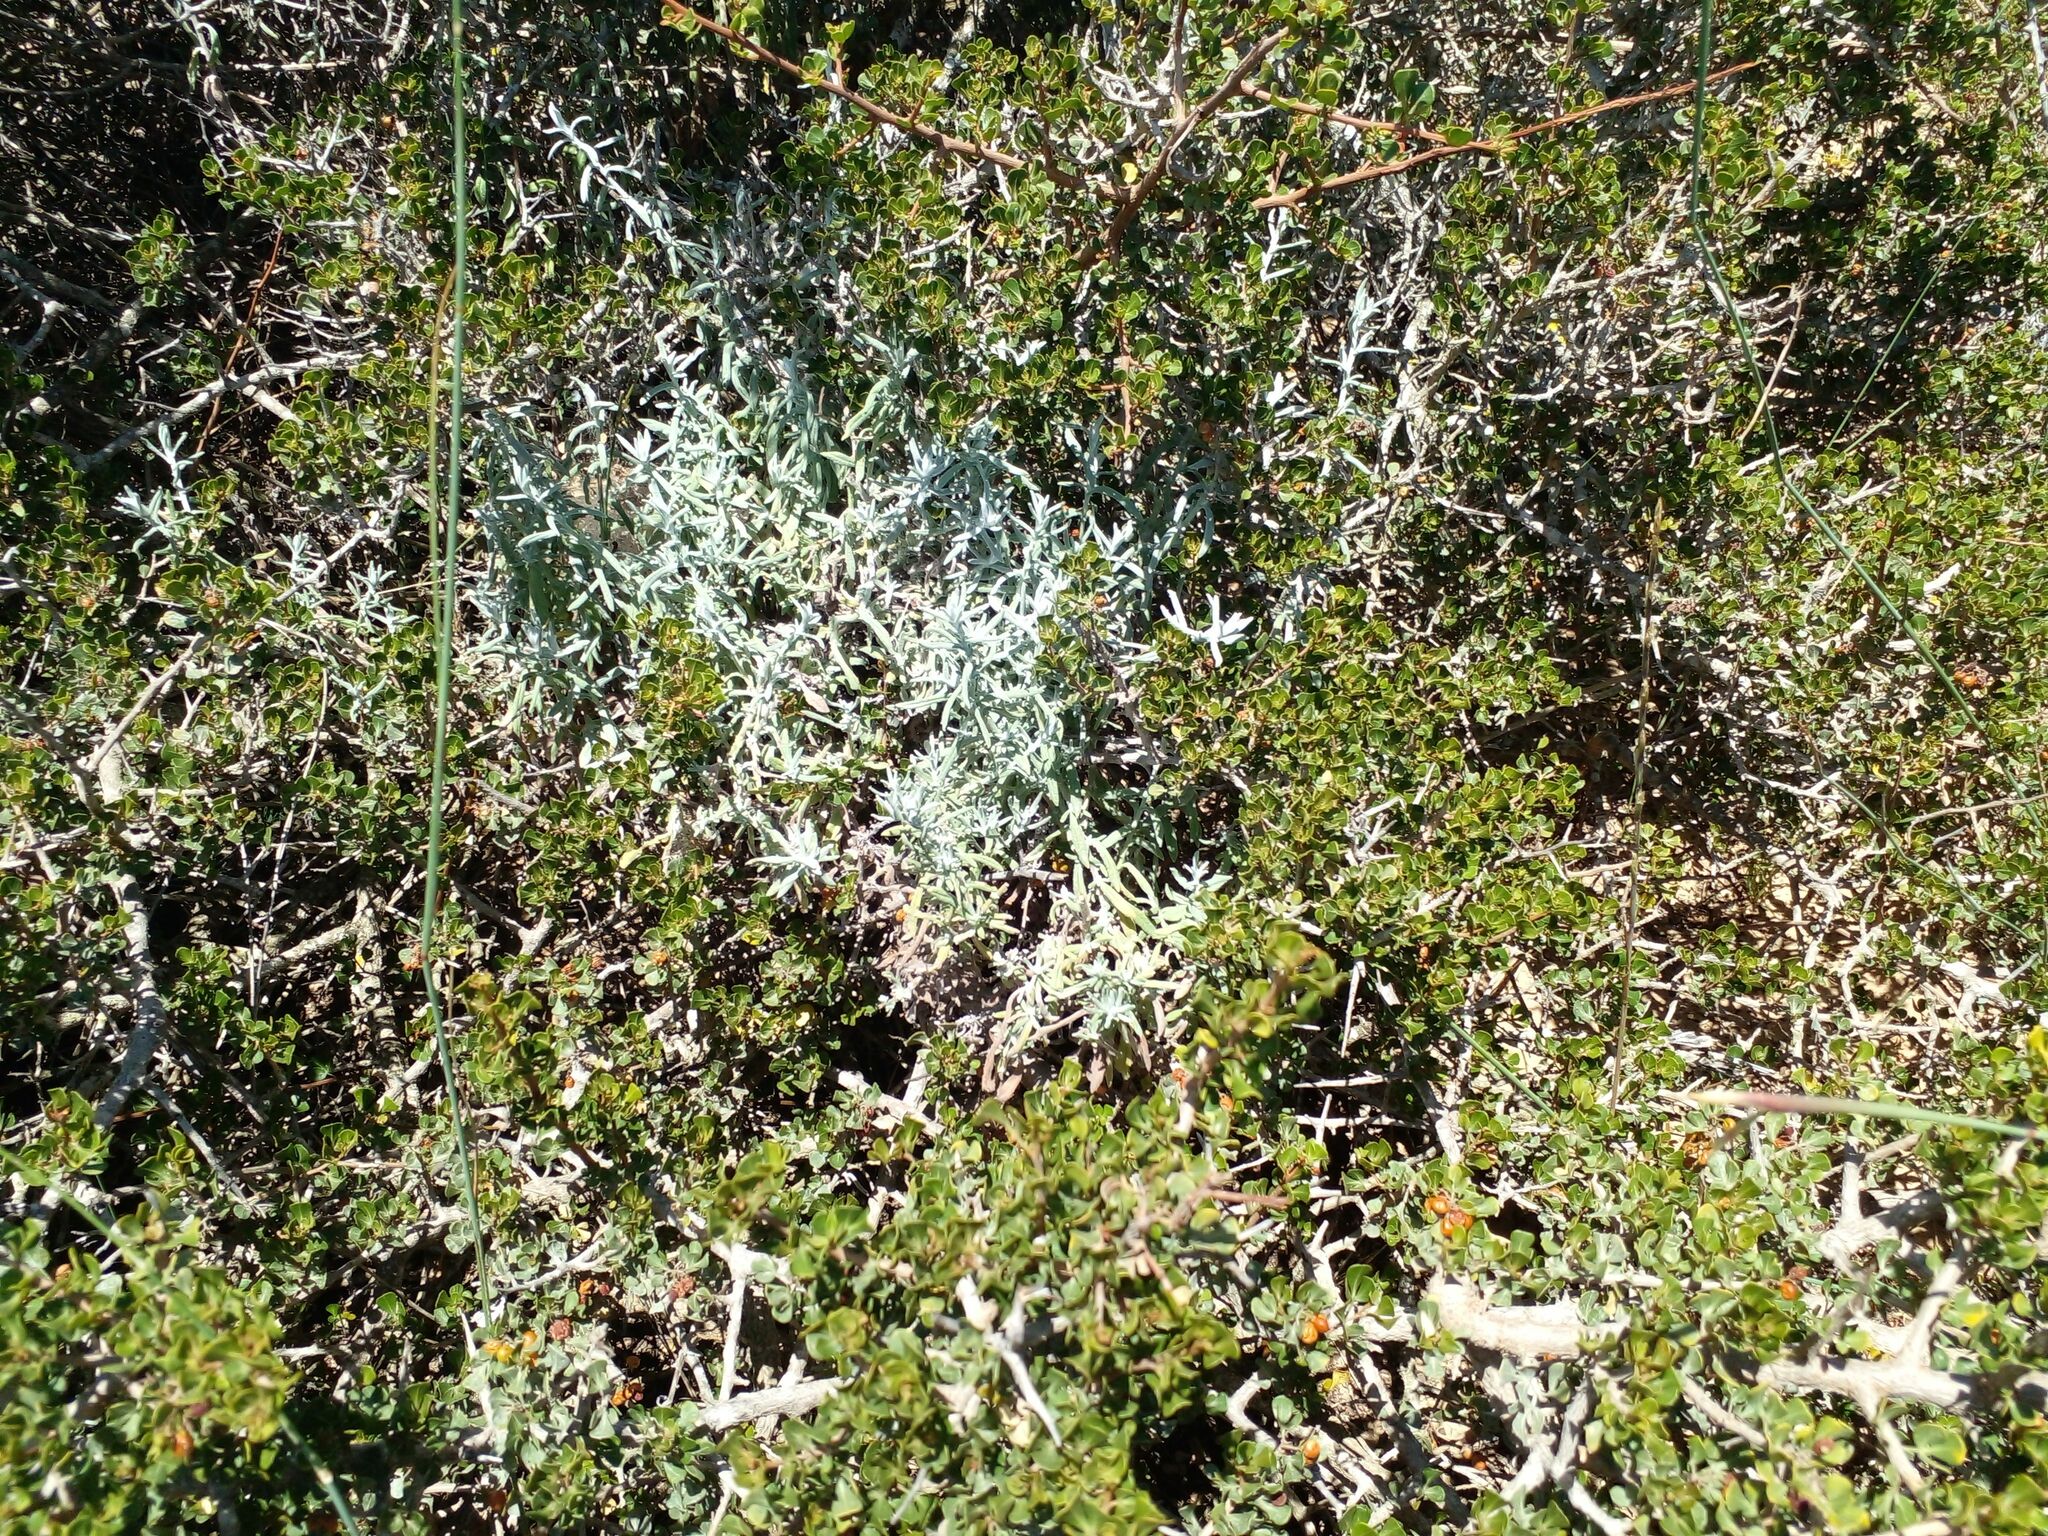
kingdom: Plantae
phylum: Tracheophyta
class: Magnoliopsida
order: Sapindales
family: Anacardiaceae
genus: Searsia
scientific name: Searsia glauca
